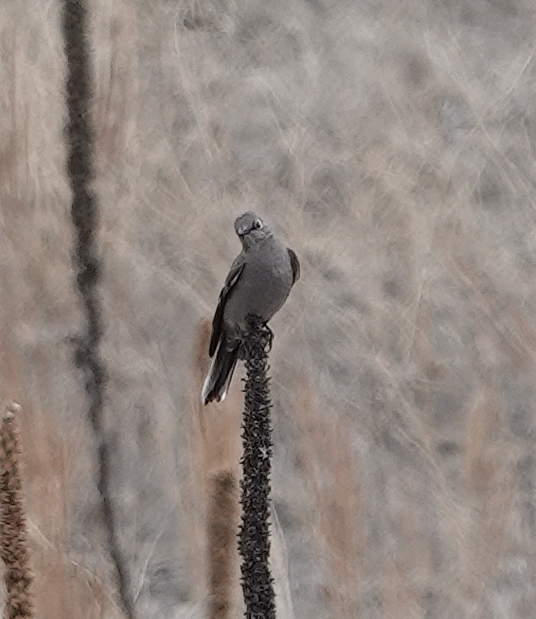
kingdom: Animalia
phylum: Chordata
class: Aves
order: Passeriformes
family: Turdidae
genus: Myadestes
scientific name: Myadestes townsendi
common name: Townsend's solitaire
